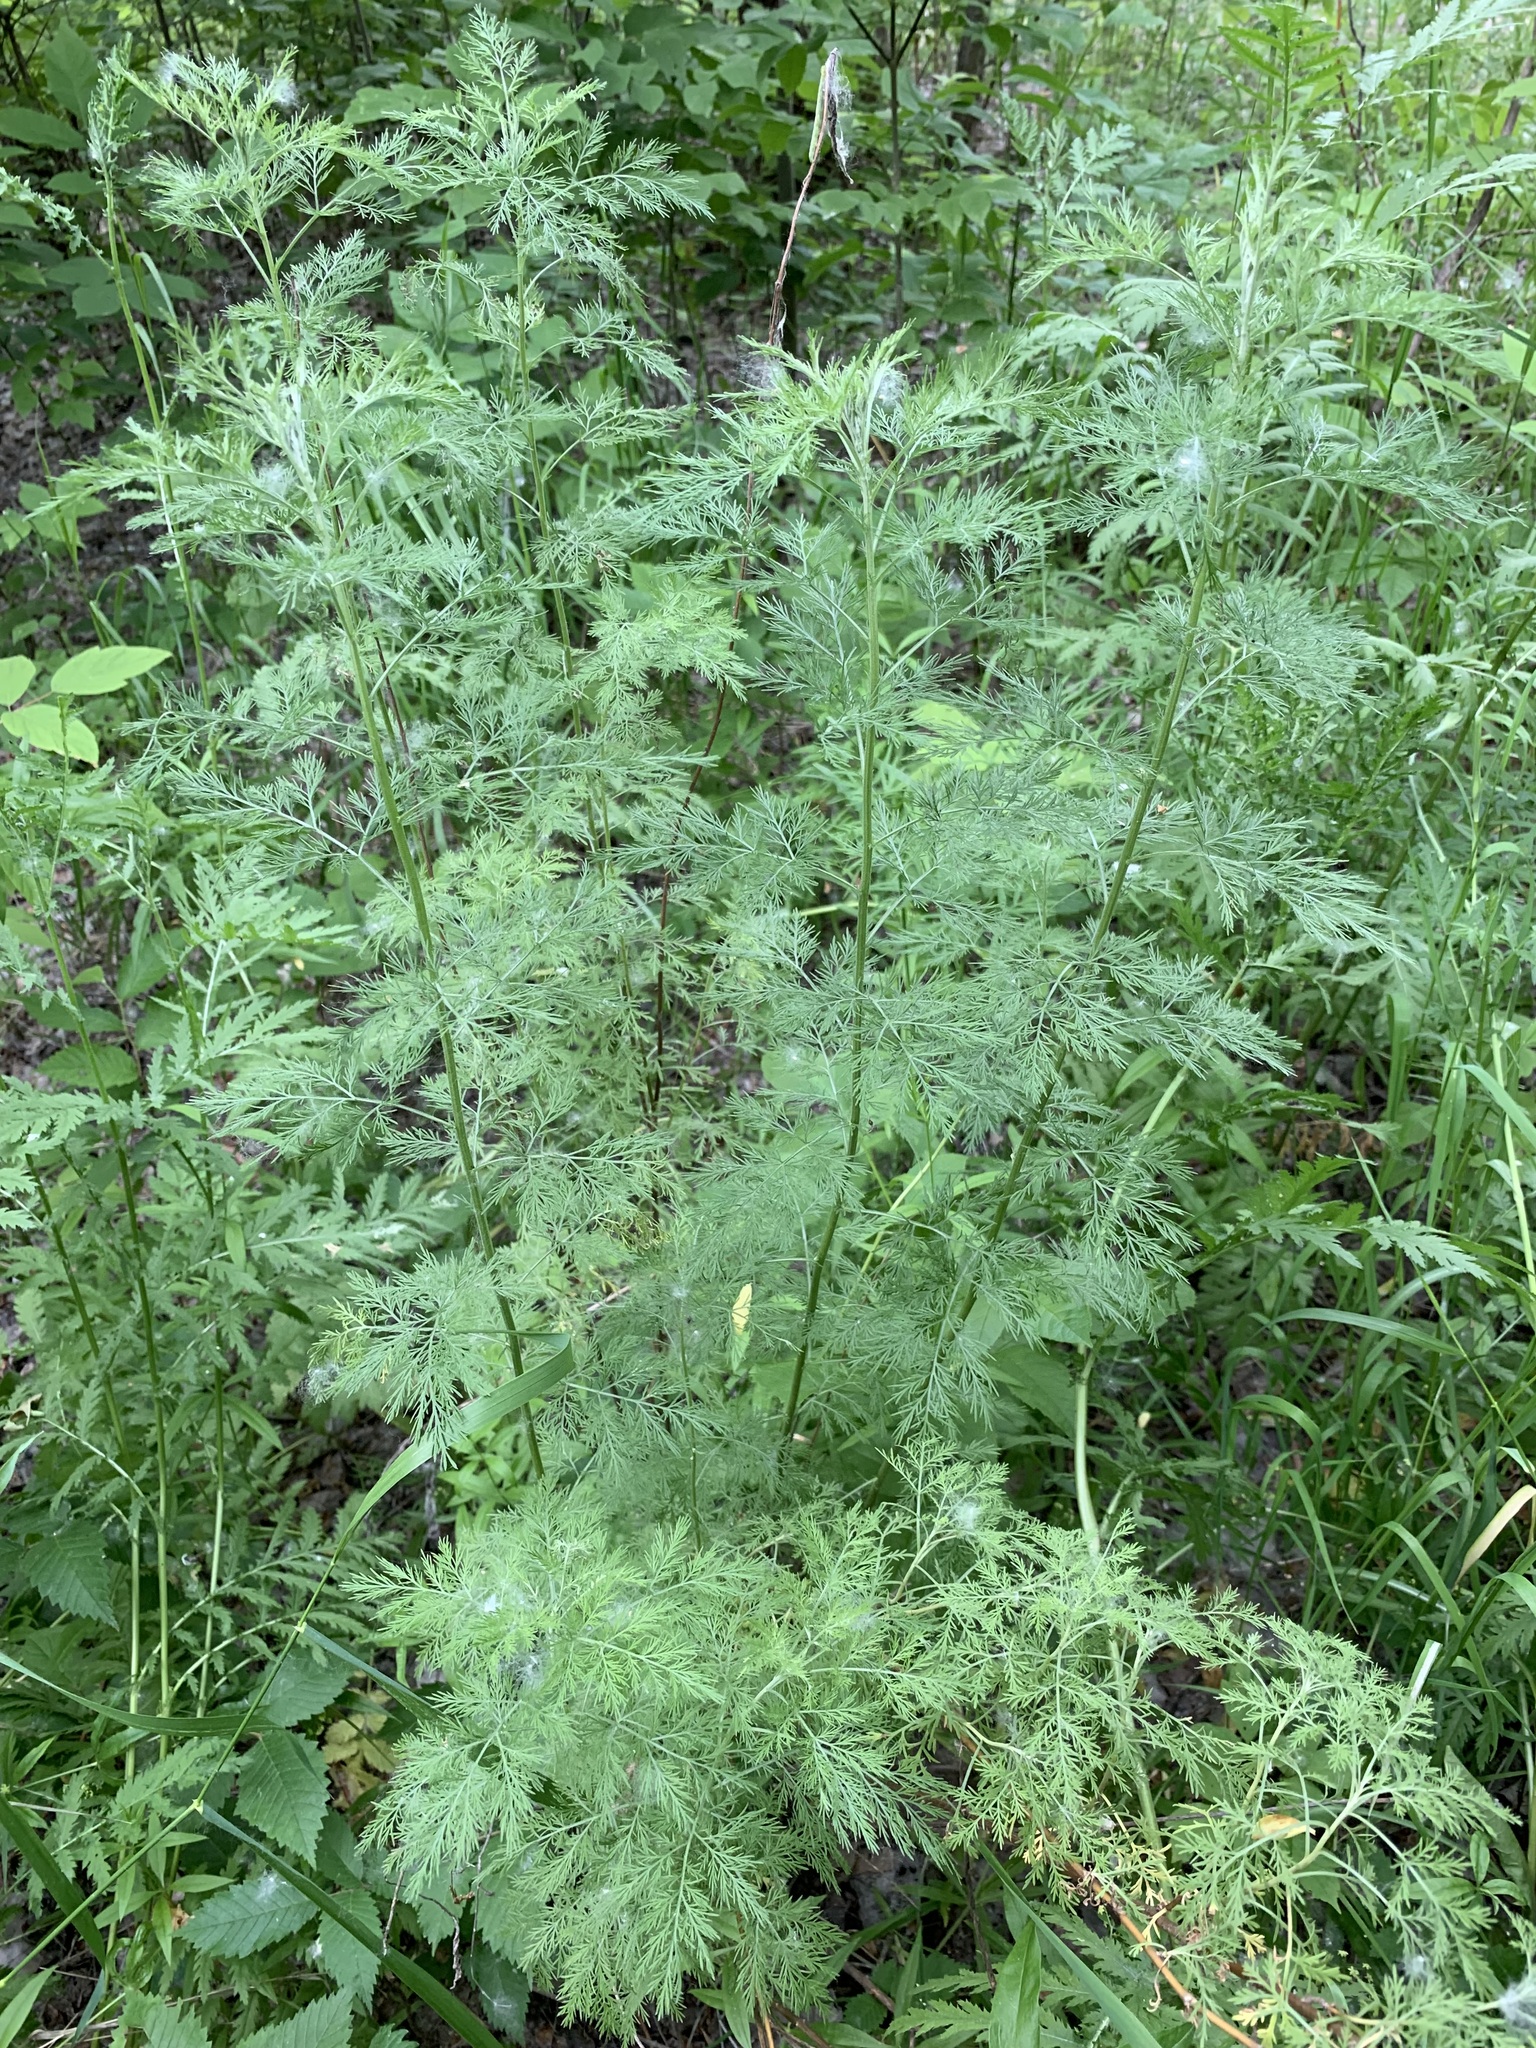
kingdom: Plantae
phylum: Tracheophyta
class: Magnoliopsida
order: Asterales
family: Asteraceae
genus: Artemisia
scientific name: Artemisia abrotanum
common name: Southernwood
